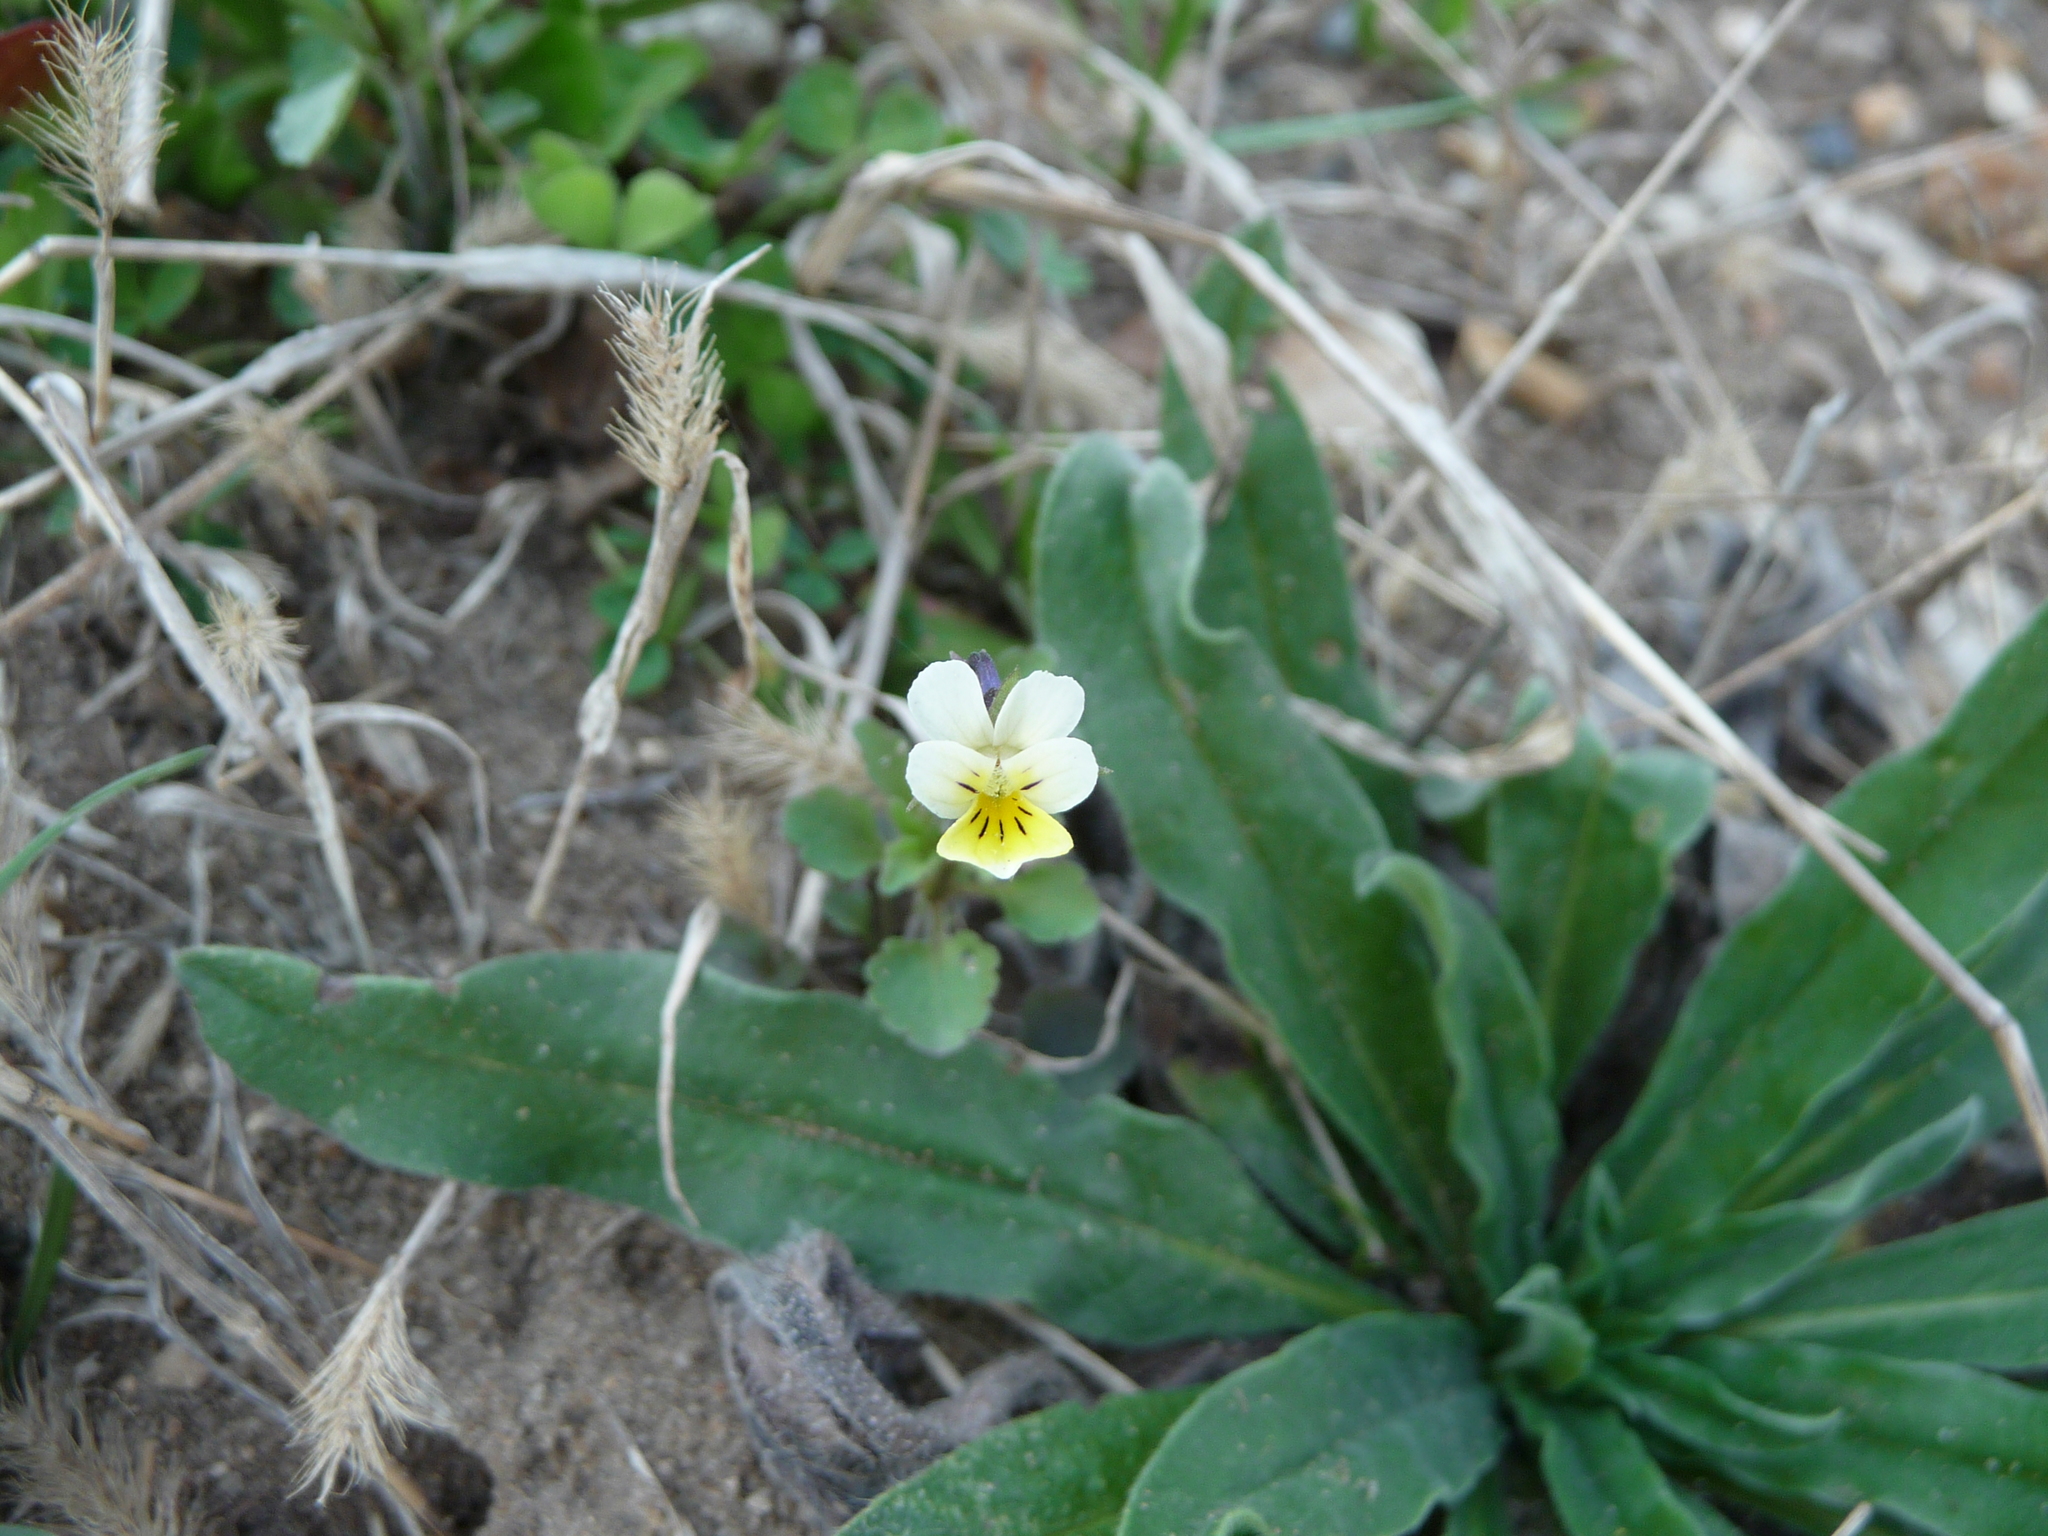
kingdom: Plantae
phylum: Tracheophyta
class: Magnoliopsida
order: Malpighiales
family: Violaceae
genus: Viola
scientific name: Viola arvensis
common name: Field pansy
